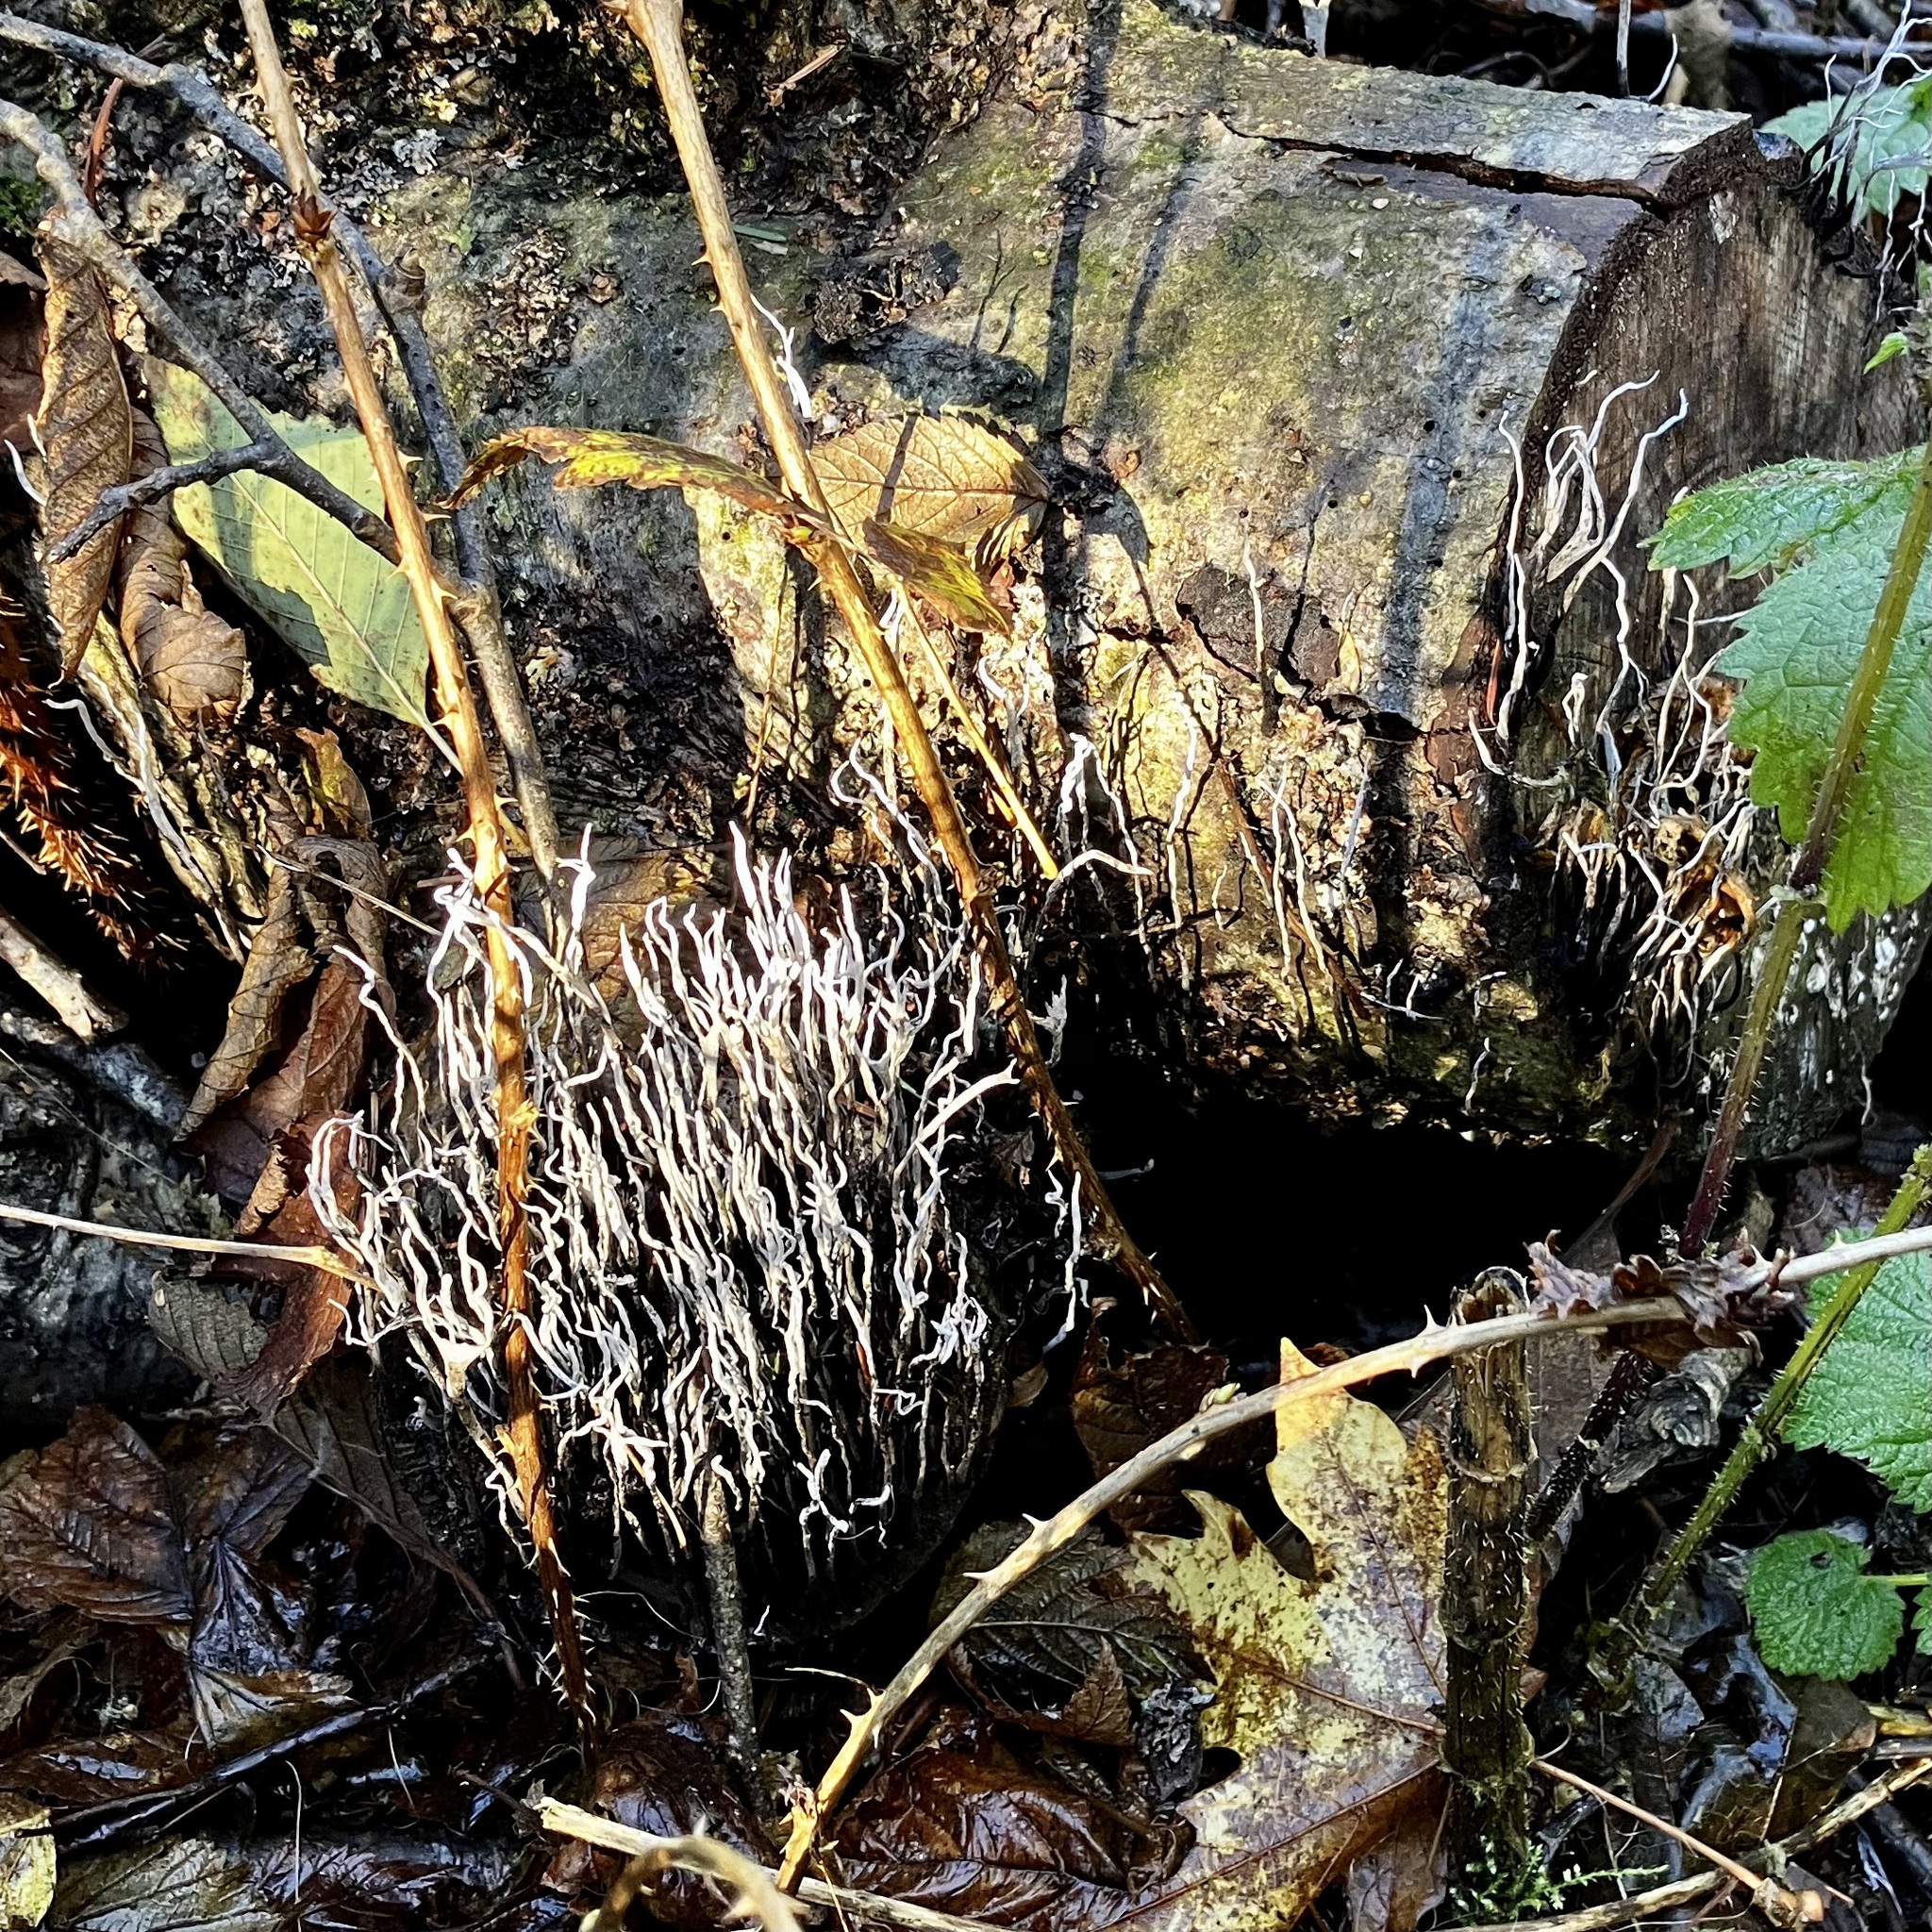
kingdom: Fungi
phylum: Ascomycota
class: Sordariomycetes
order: Xylariales
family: Xylariaceae
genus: Xylaria
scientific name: Xylaria hypoxylon
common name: Candle-snuff fungus
